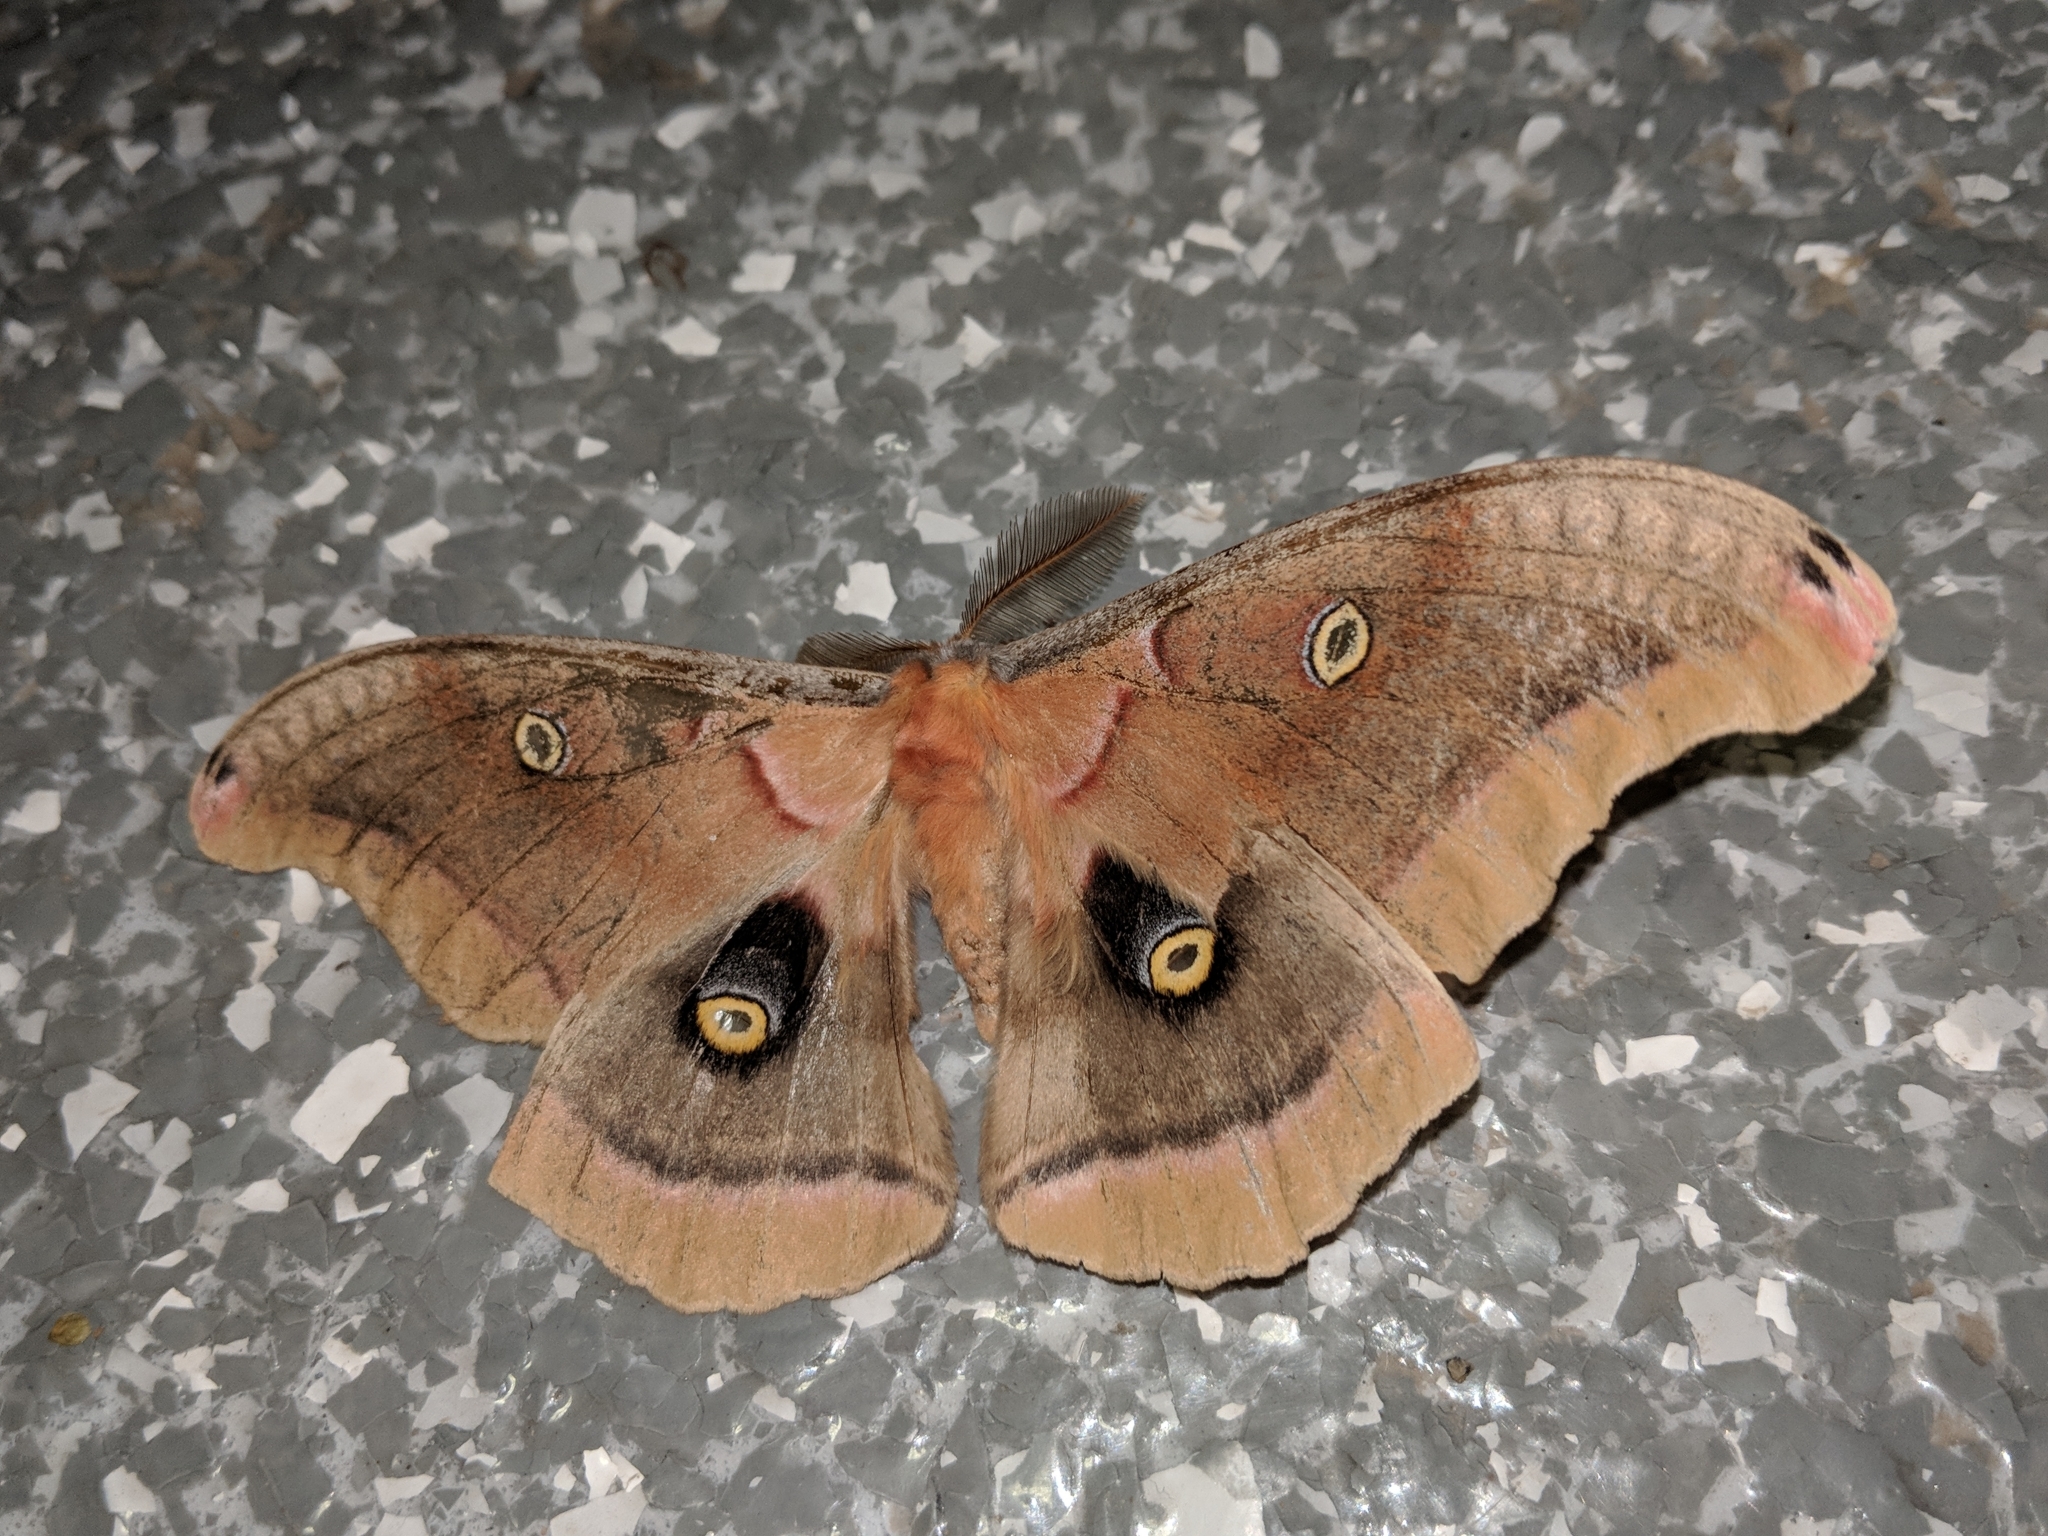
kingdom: Animalia
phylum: Arthropoda
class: Insecta
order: Lepidoptera
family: Saturniidae
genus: Antheraea
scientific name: Antheraea polyphemus
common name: Polyphemus moth
